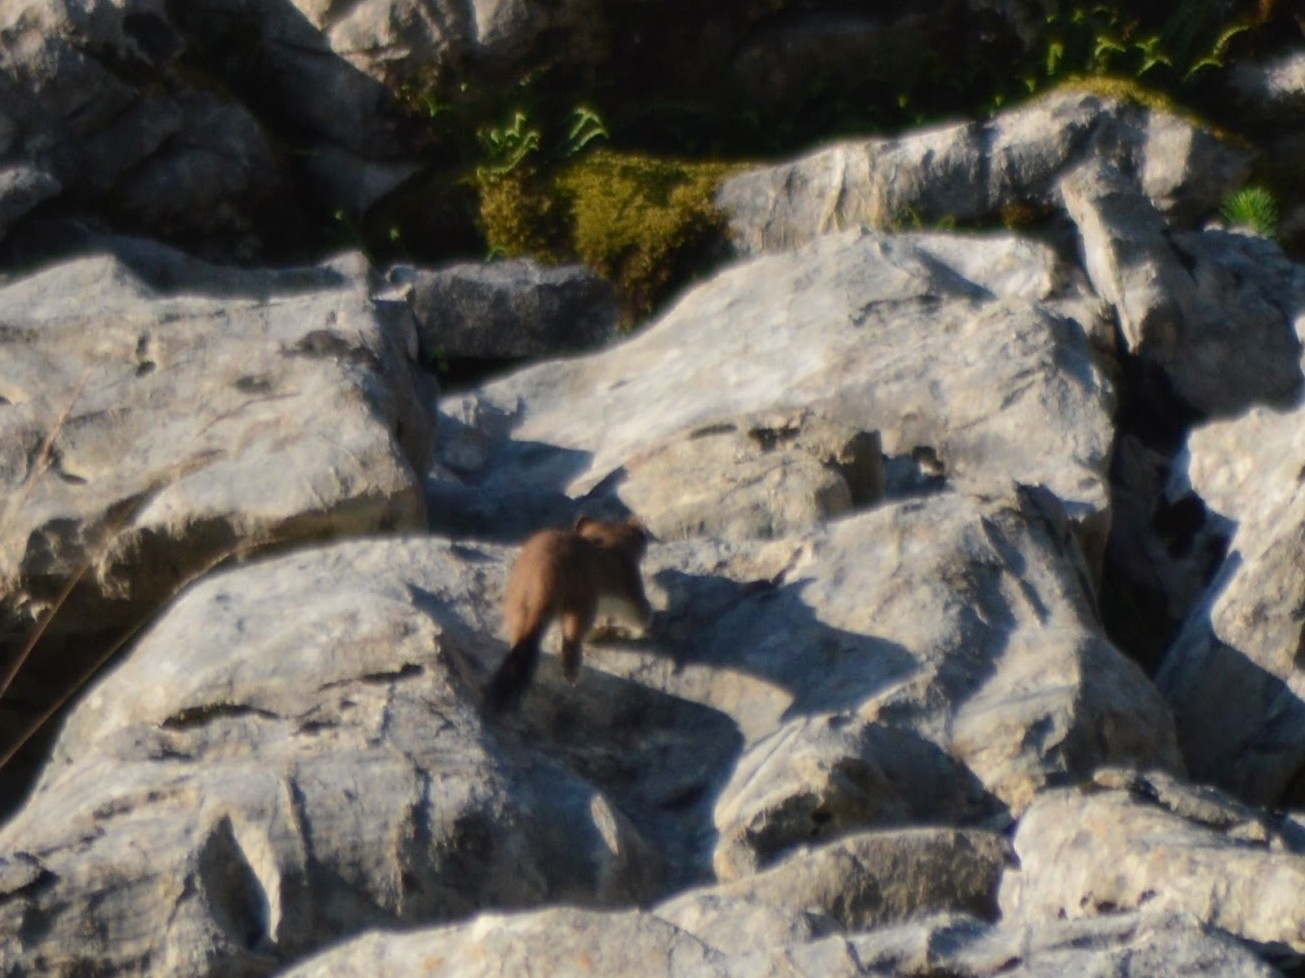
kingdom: Animalia
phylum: Chordata
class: Mammalia
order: Carnivora
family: Mustelidae
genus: Mustela
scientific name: Mustela erminea
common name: Stoat
